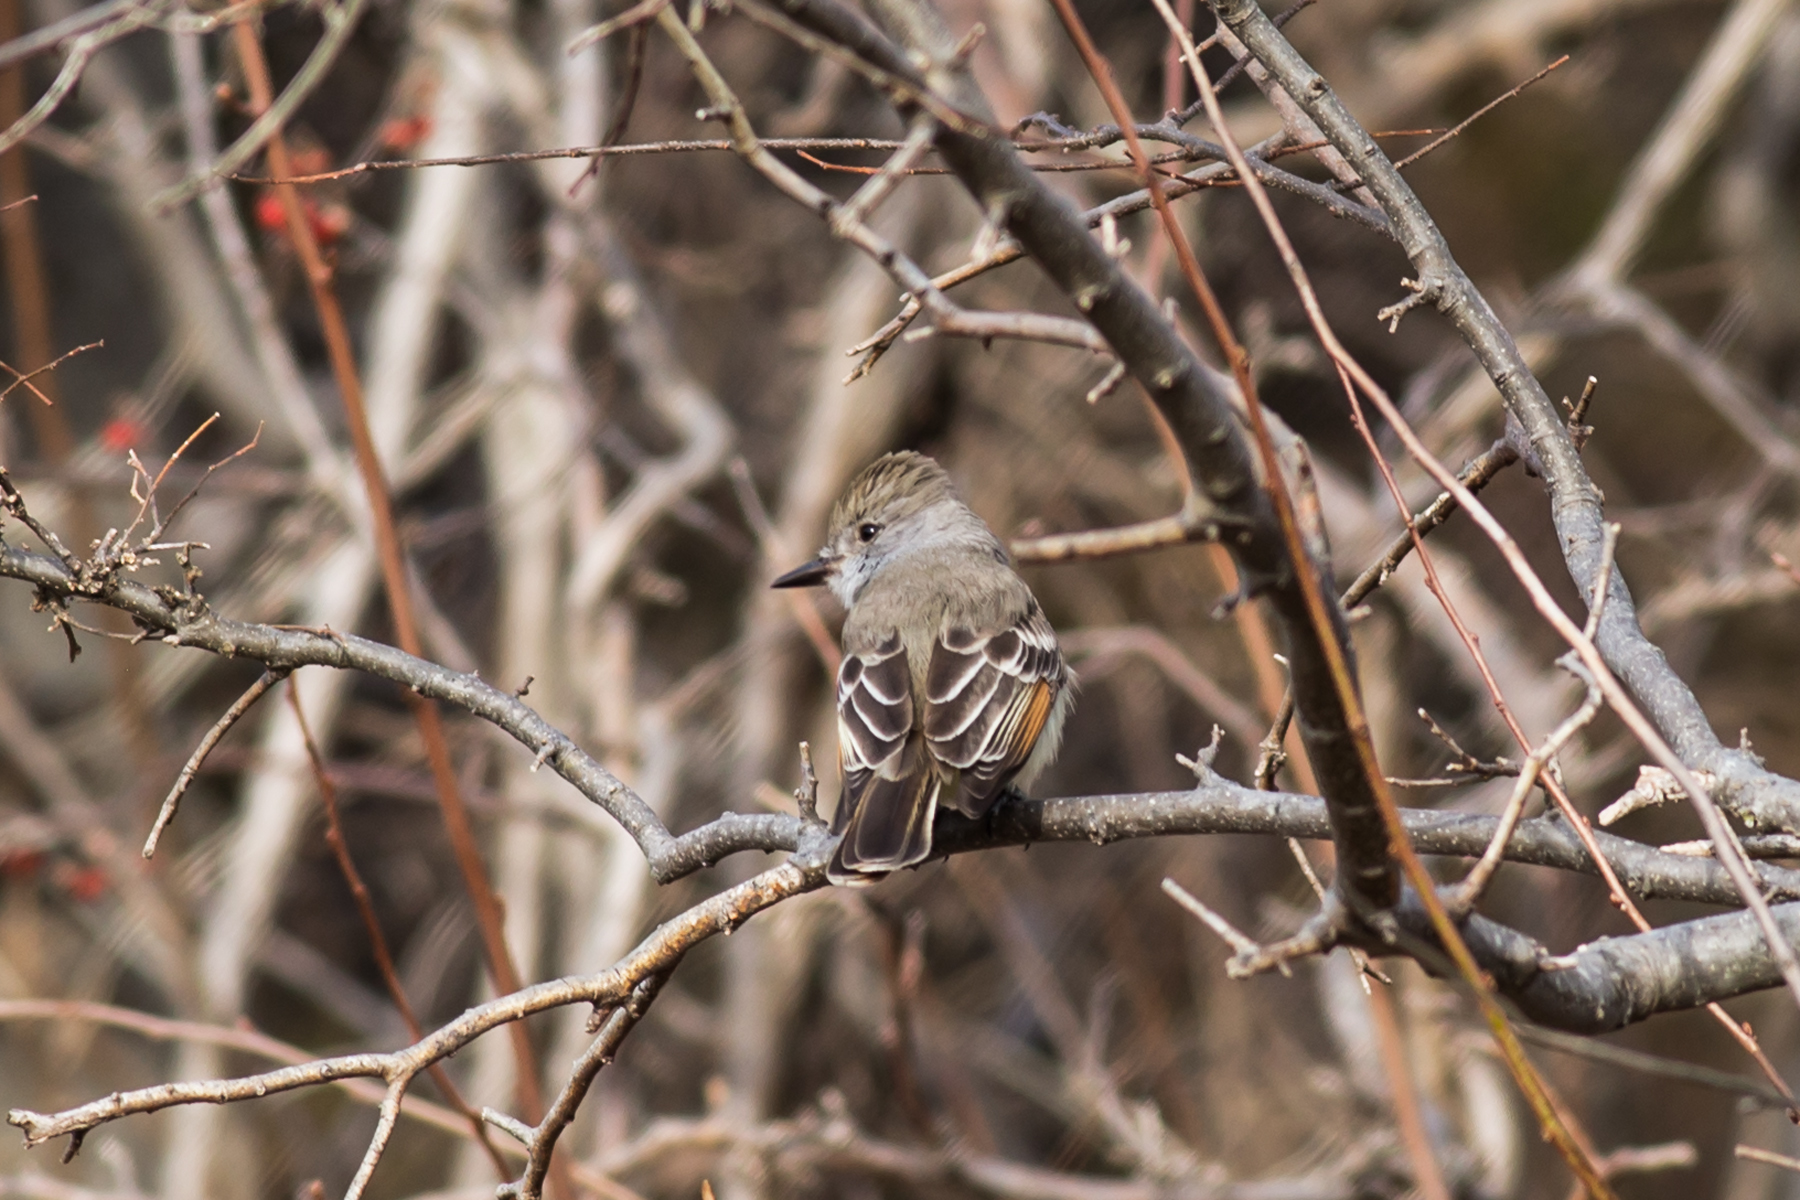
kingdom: Animalia
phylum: Chordata
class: Aves
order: Passeriformes
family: Tyrannidae
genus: Myiarchus
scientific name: Myiarchus cinerascens
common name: Ash-throated flycatcher
